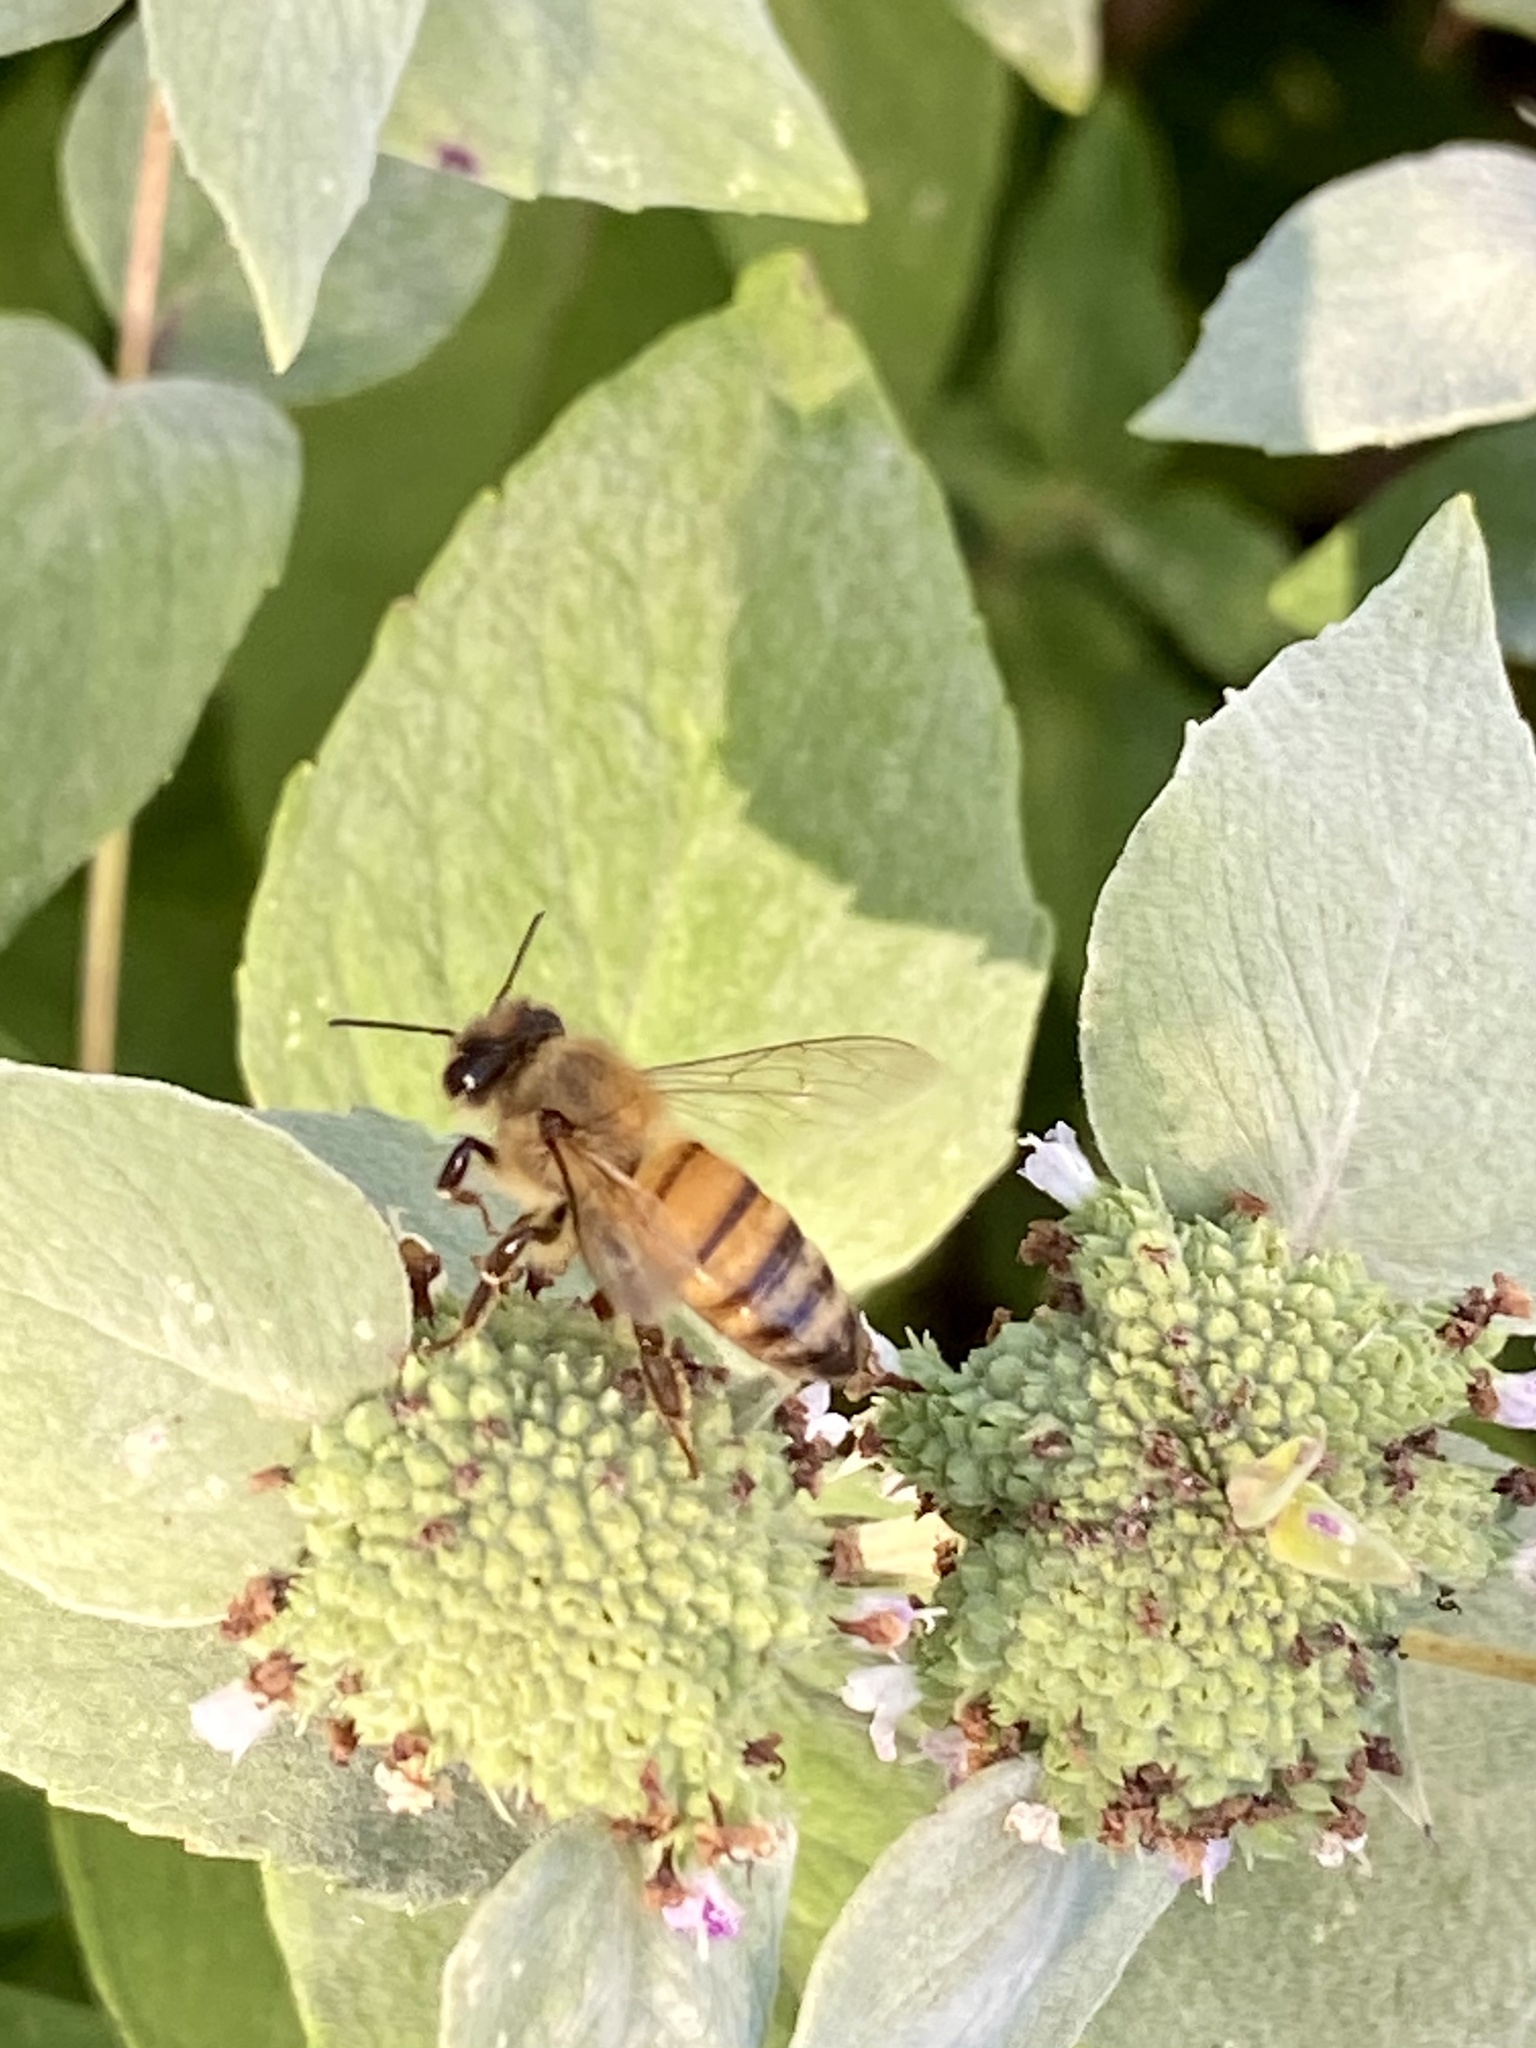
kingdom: Animalia
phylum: Arthropoda
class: Insecta
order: Hymenoptera
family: Apidae
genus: Apis
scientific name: Apis mellifera
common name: Honey bee
